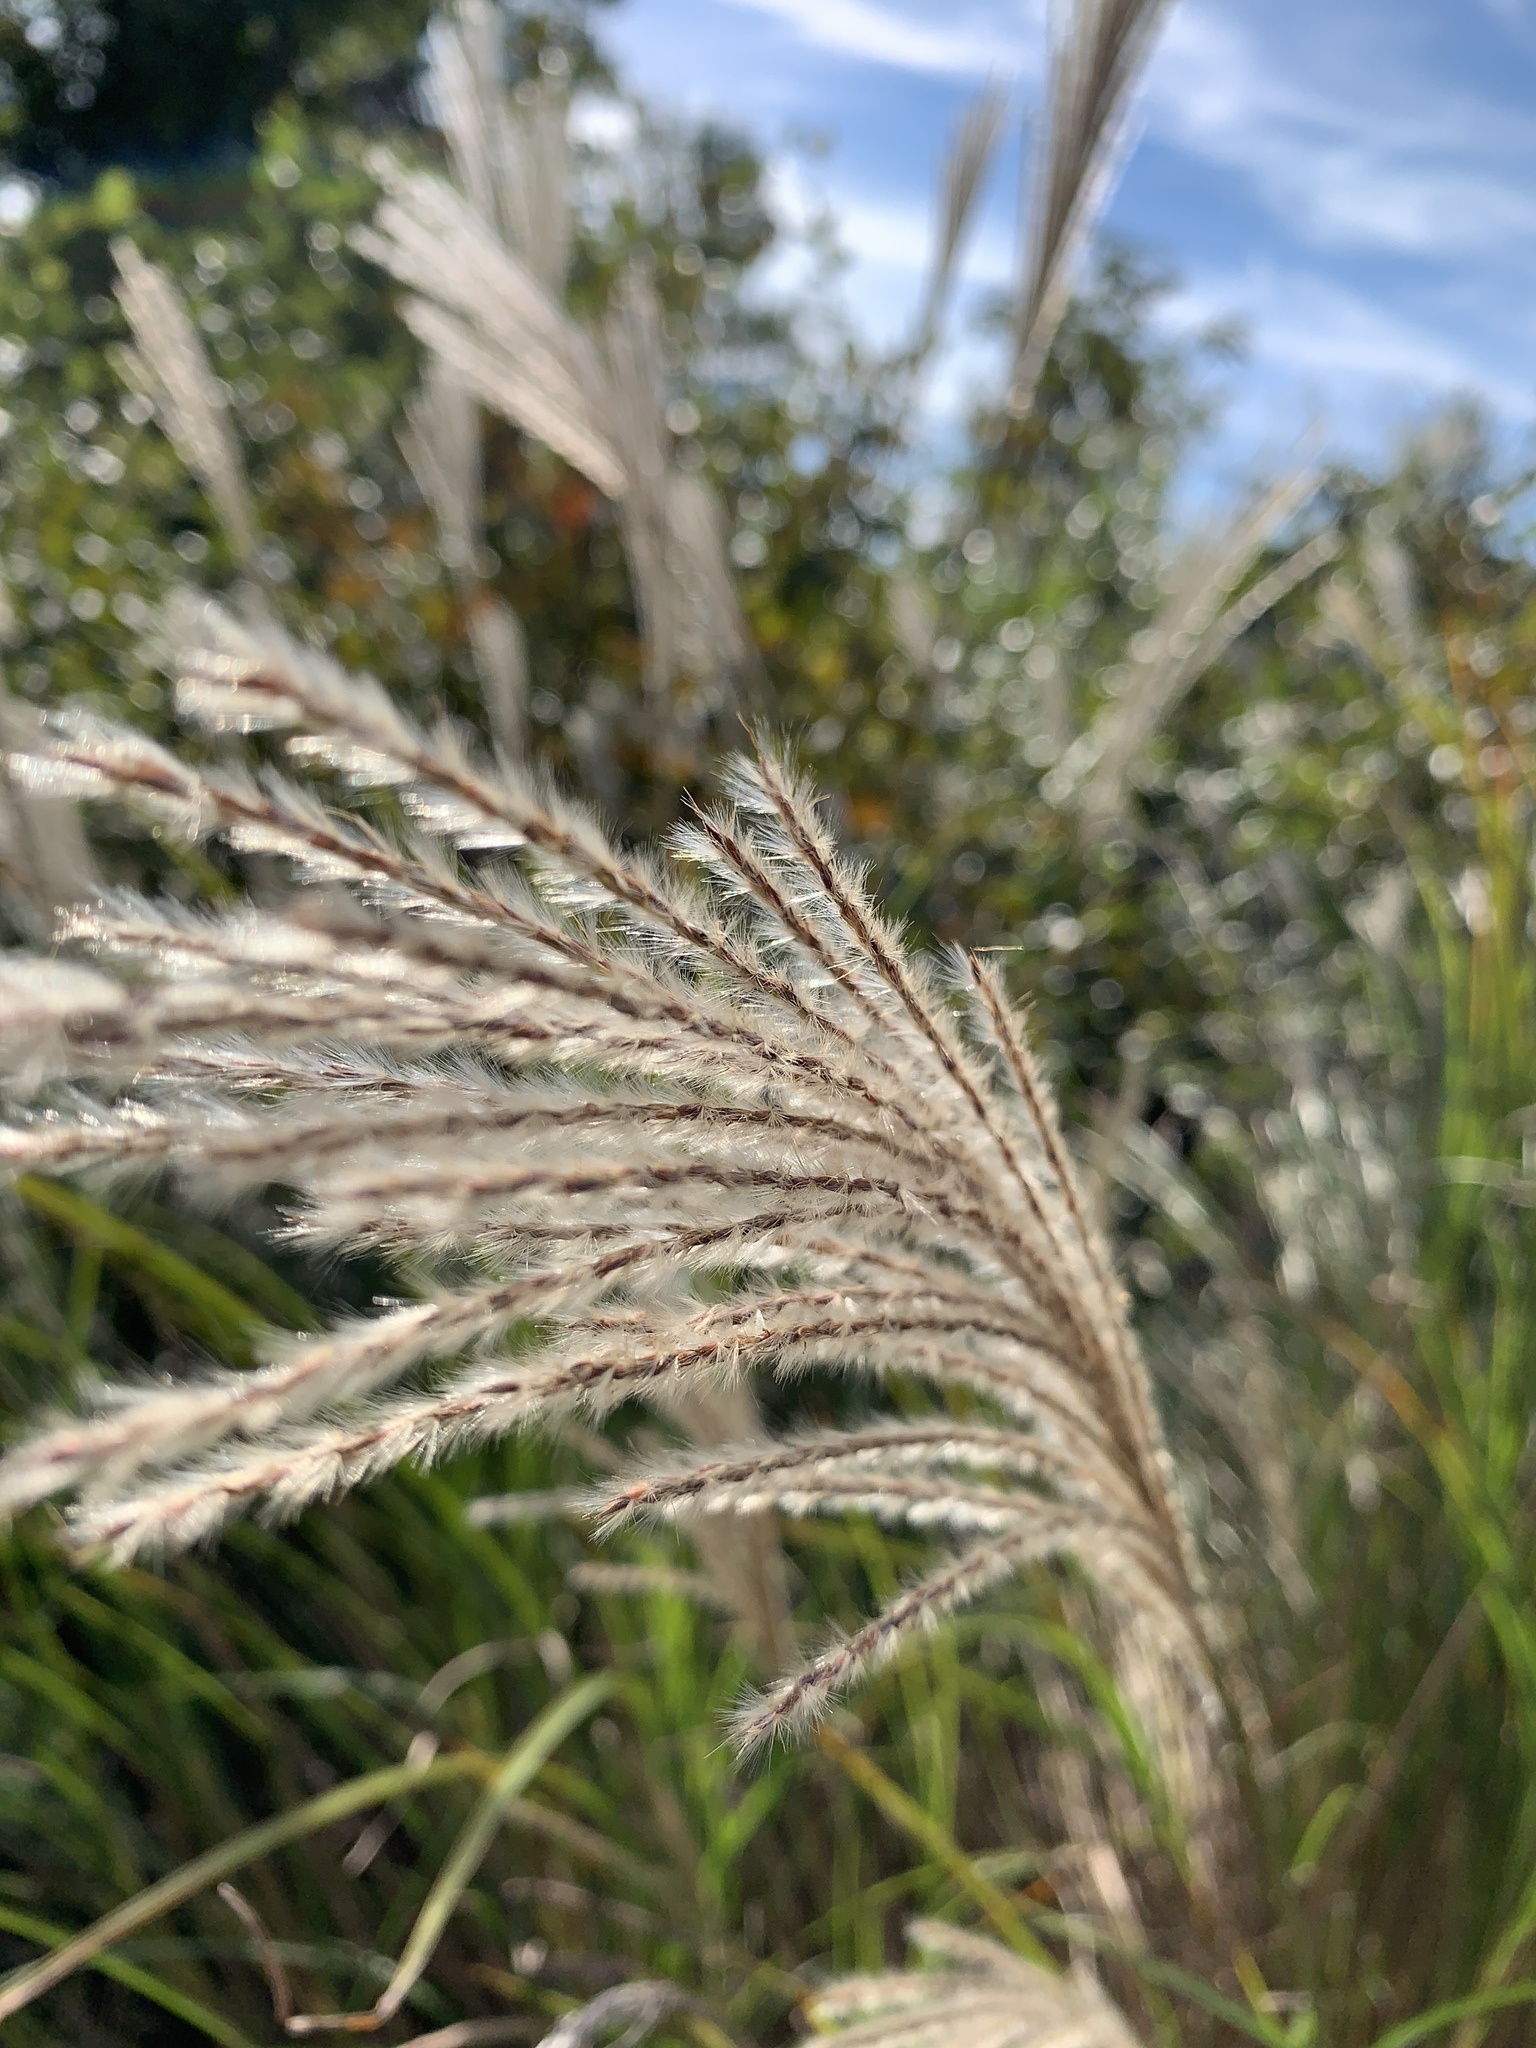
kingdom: Plantae
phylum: Tracheophyta
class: Liliopsida
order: Poales
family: Poaceae
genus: Miscanthus
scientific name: Miscanthus sinensis
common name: Chinese silvergrass
